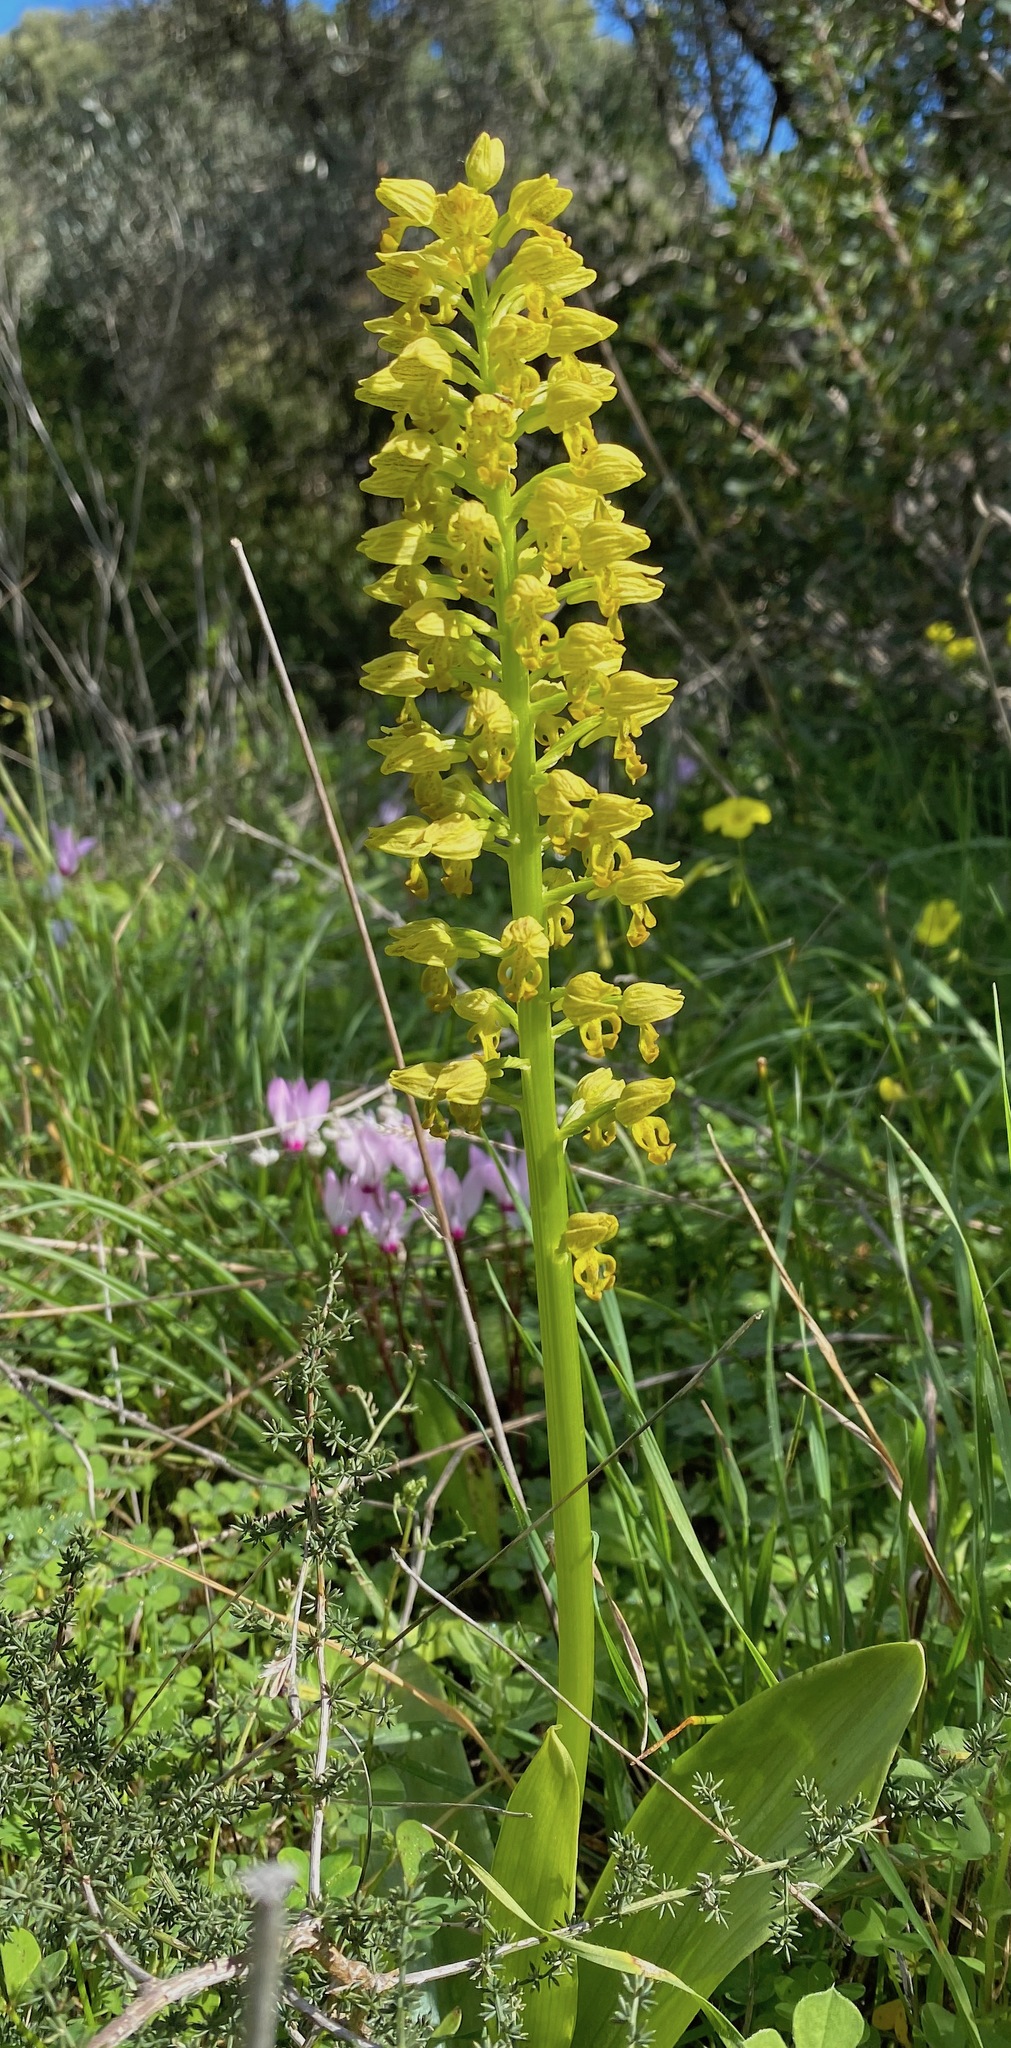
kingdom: Plantae
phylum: Tracheophyta
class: Liliopsida
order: Asparagales
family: Orchidaceae
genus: Orchis
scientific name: Orchis punctulata
